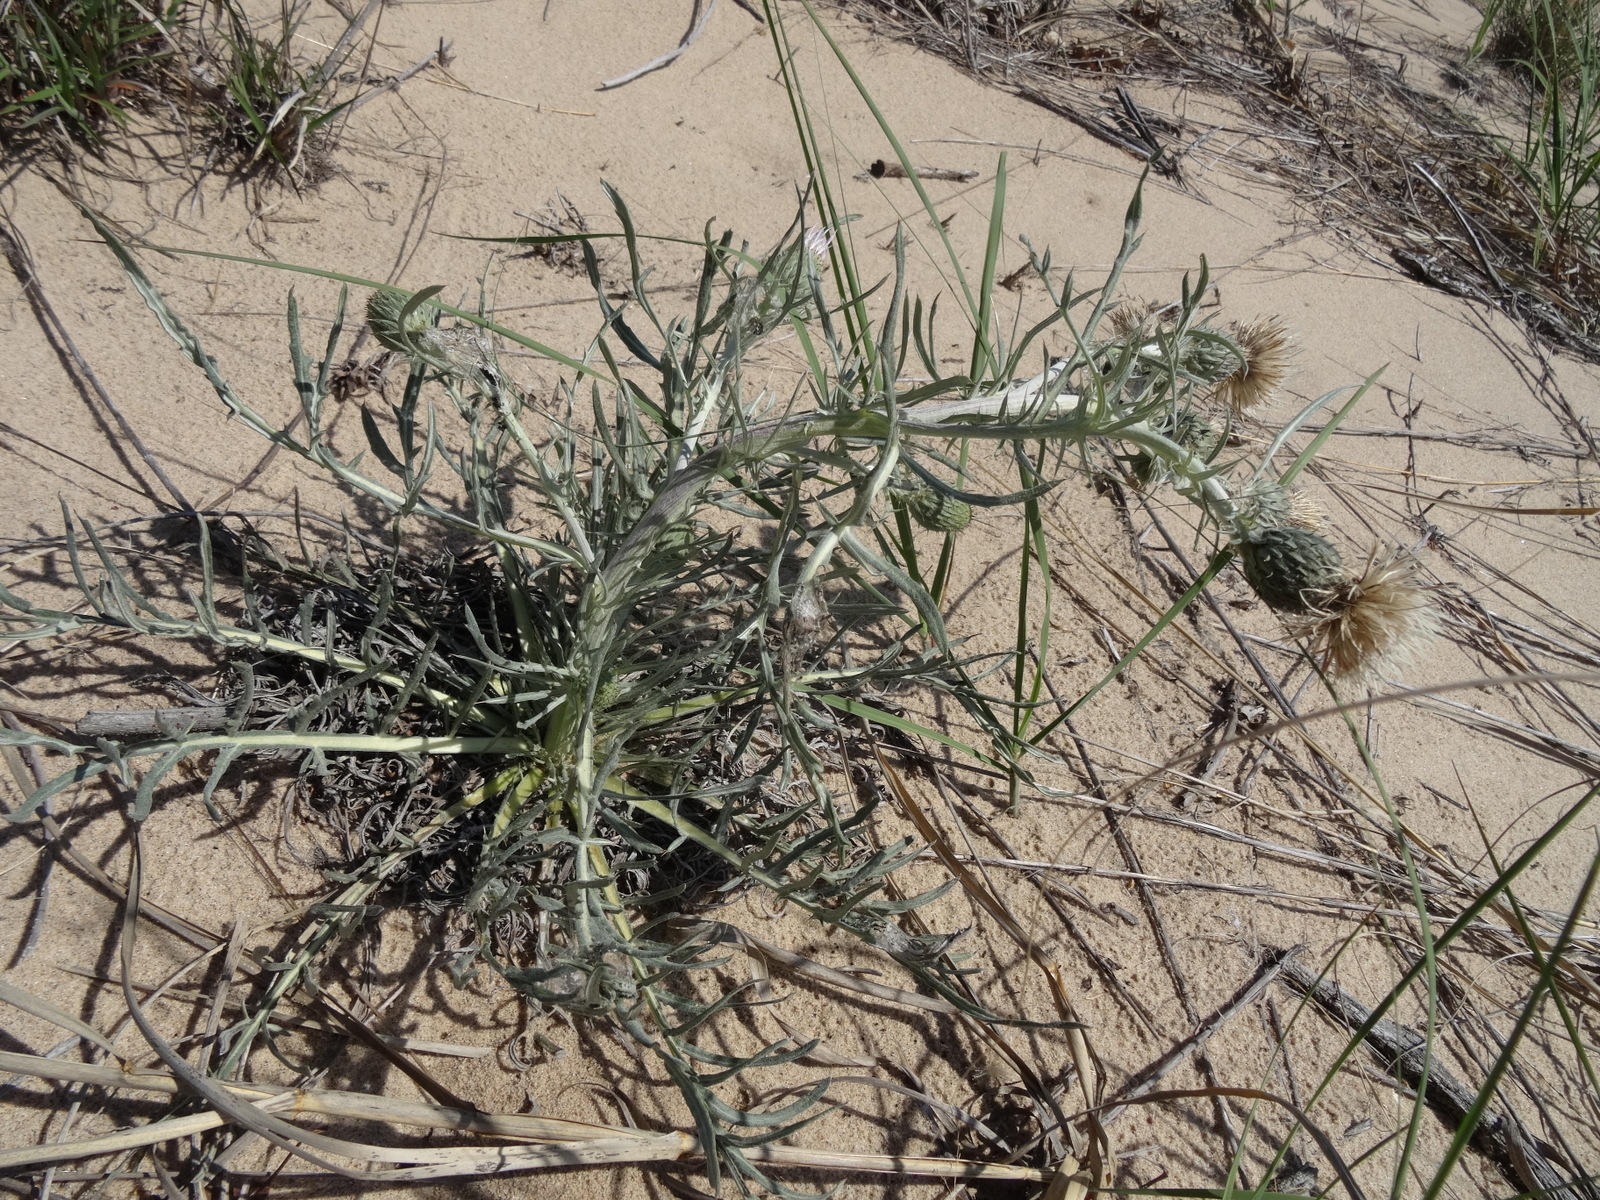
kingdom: Plantae
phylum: Tracheophyta
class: Magnoliopsida
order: Asterales
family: Asteraceae
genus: Cirsium
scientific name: Cirsium pitcheri
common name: Dune thistle
